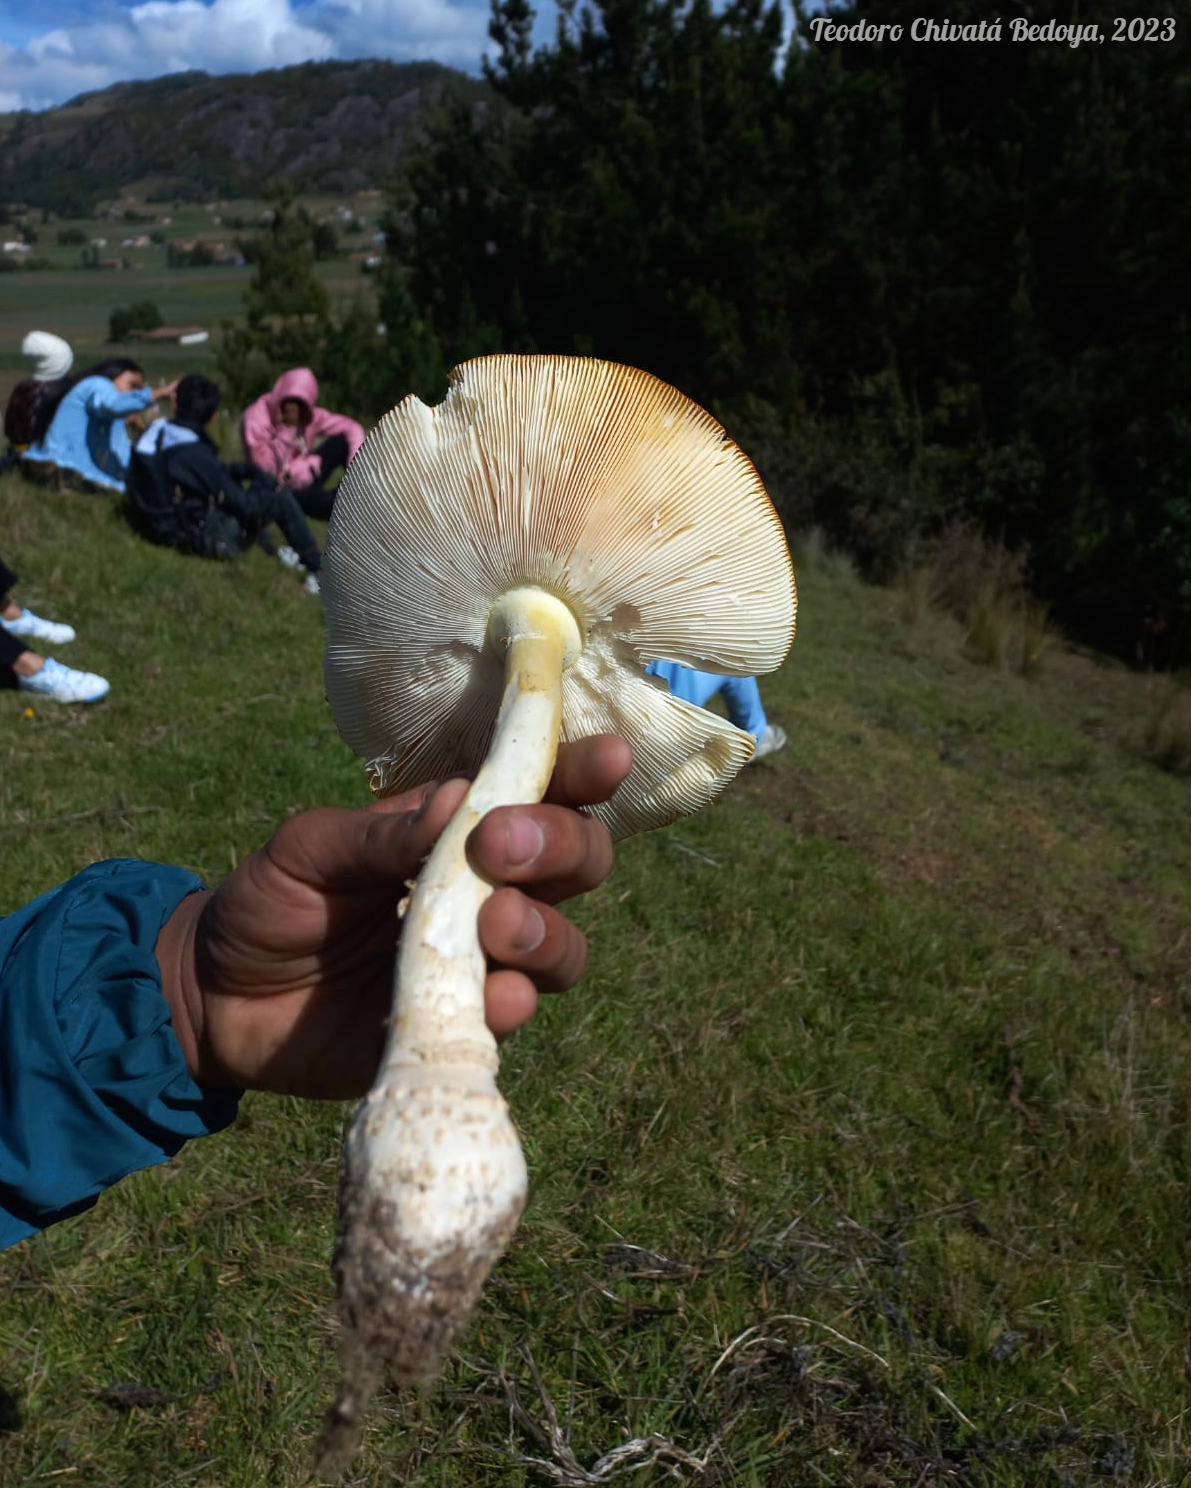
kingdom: Fungi
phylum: Basidiomycota
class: Agaricomycetes
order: Agaricales
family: Amanitaceae
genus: Amanita
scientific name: Amanita muscaria
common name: Fly agaric
